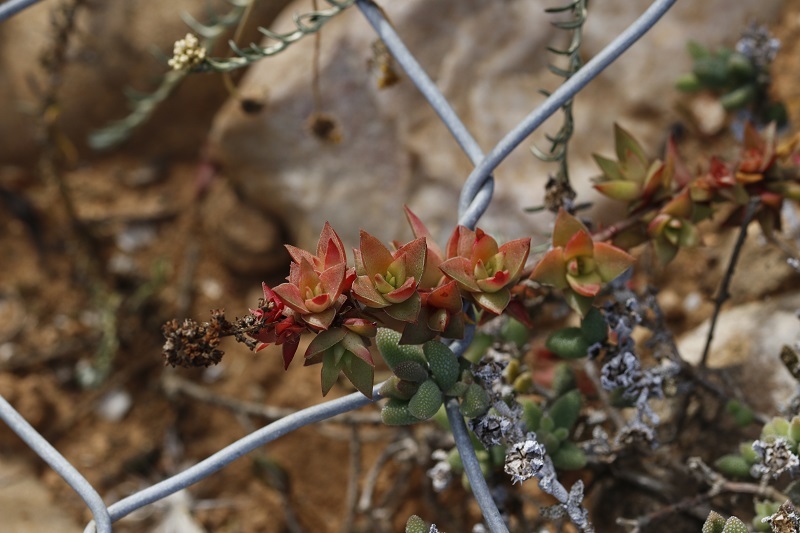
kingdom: Plantae
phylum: Tracheophyta
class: Magnoliopsida
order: Saxifragales
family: Crassulaceae
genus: Crassula
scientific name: Crassula capitella
